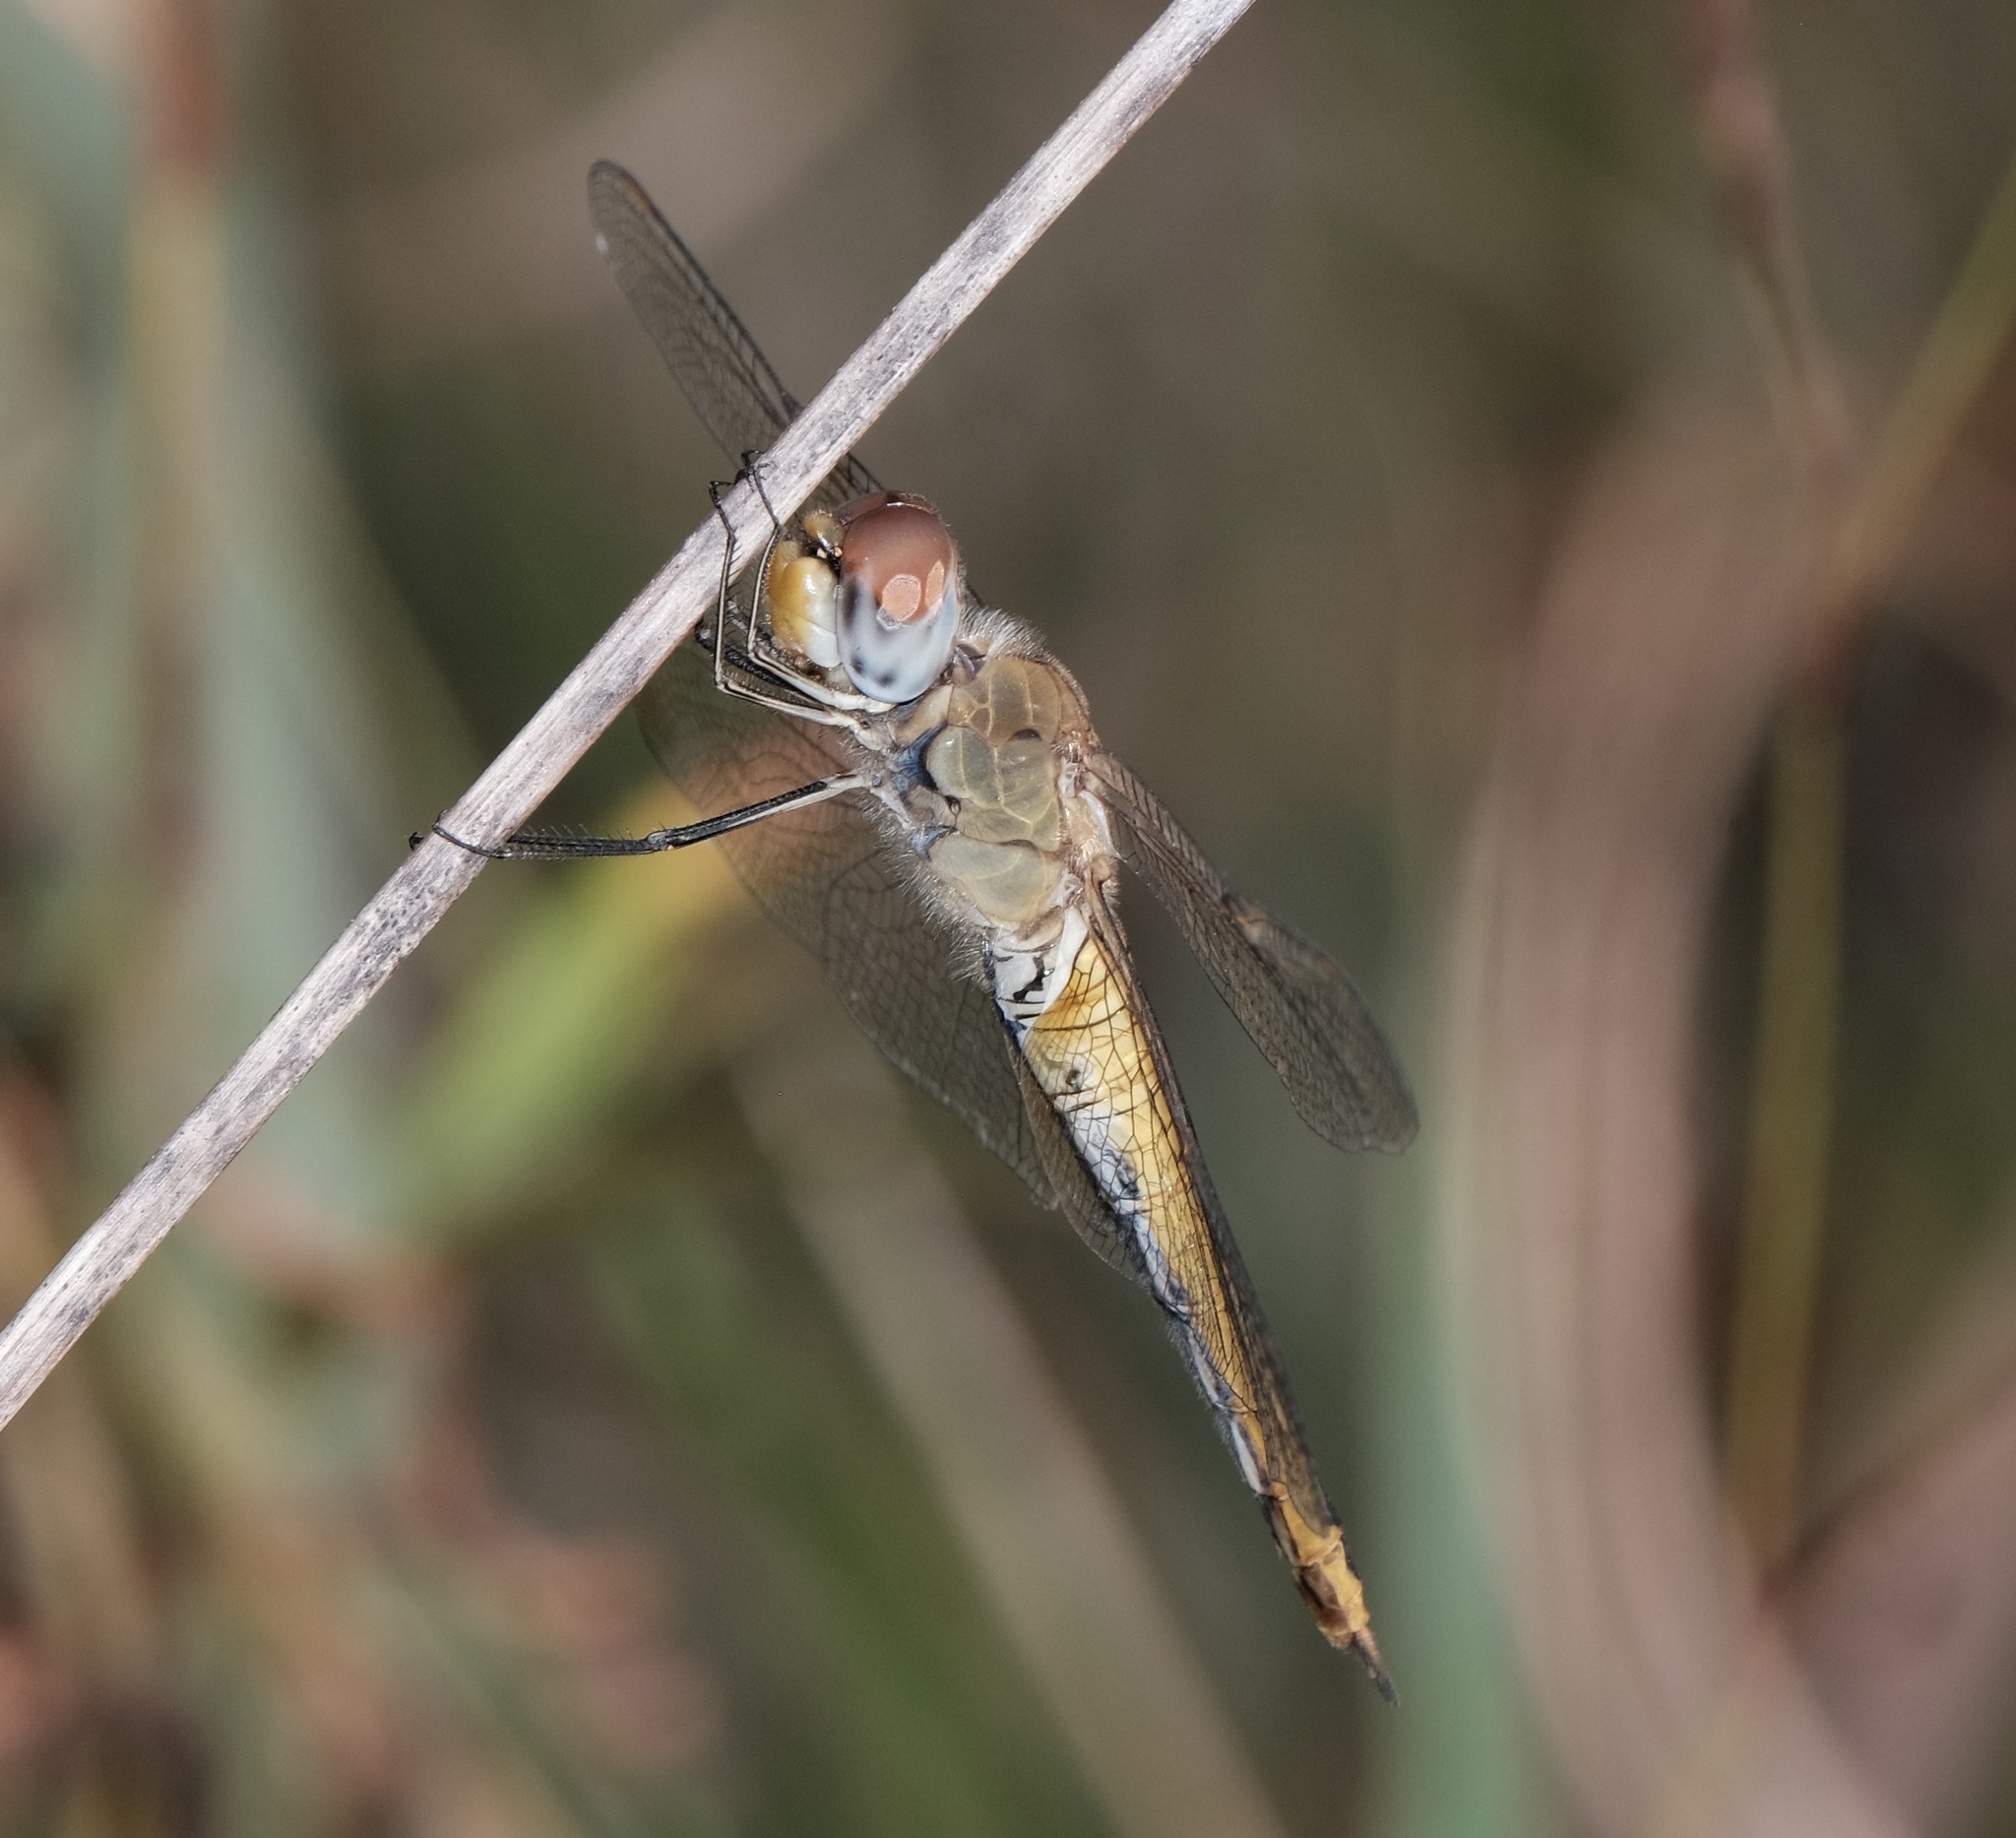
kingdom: Animalia
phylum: Arthropoda
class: Insecta
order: Odonata
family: Libellulidae
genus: Pantala
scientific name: Pantala flavescens
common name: Wandering glider
